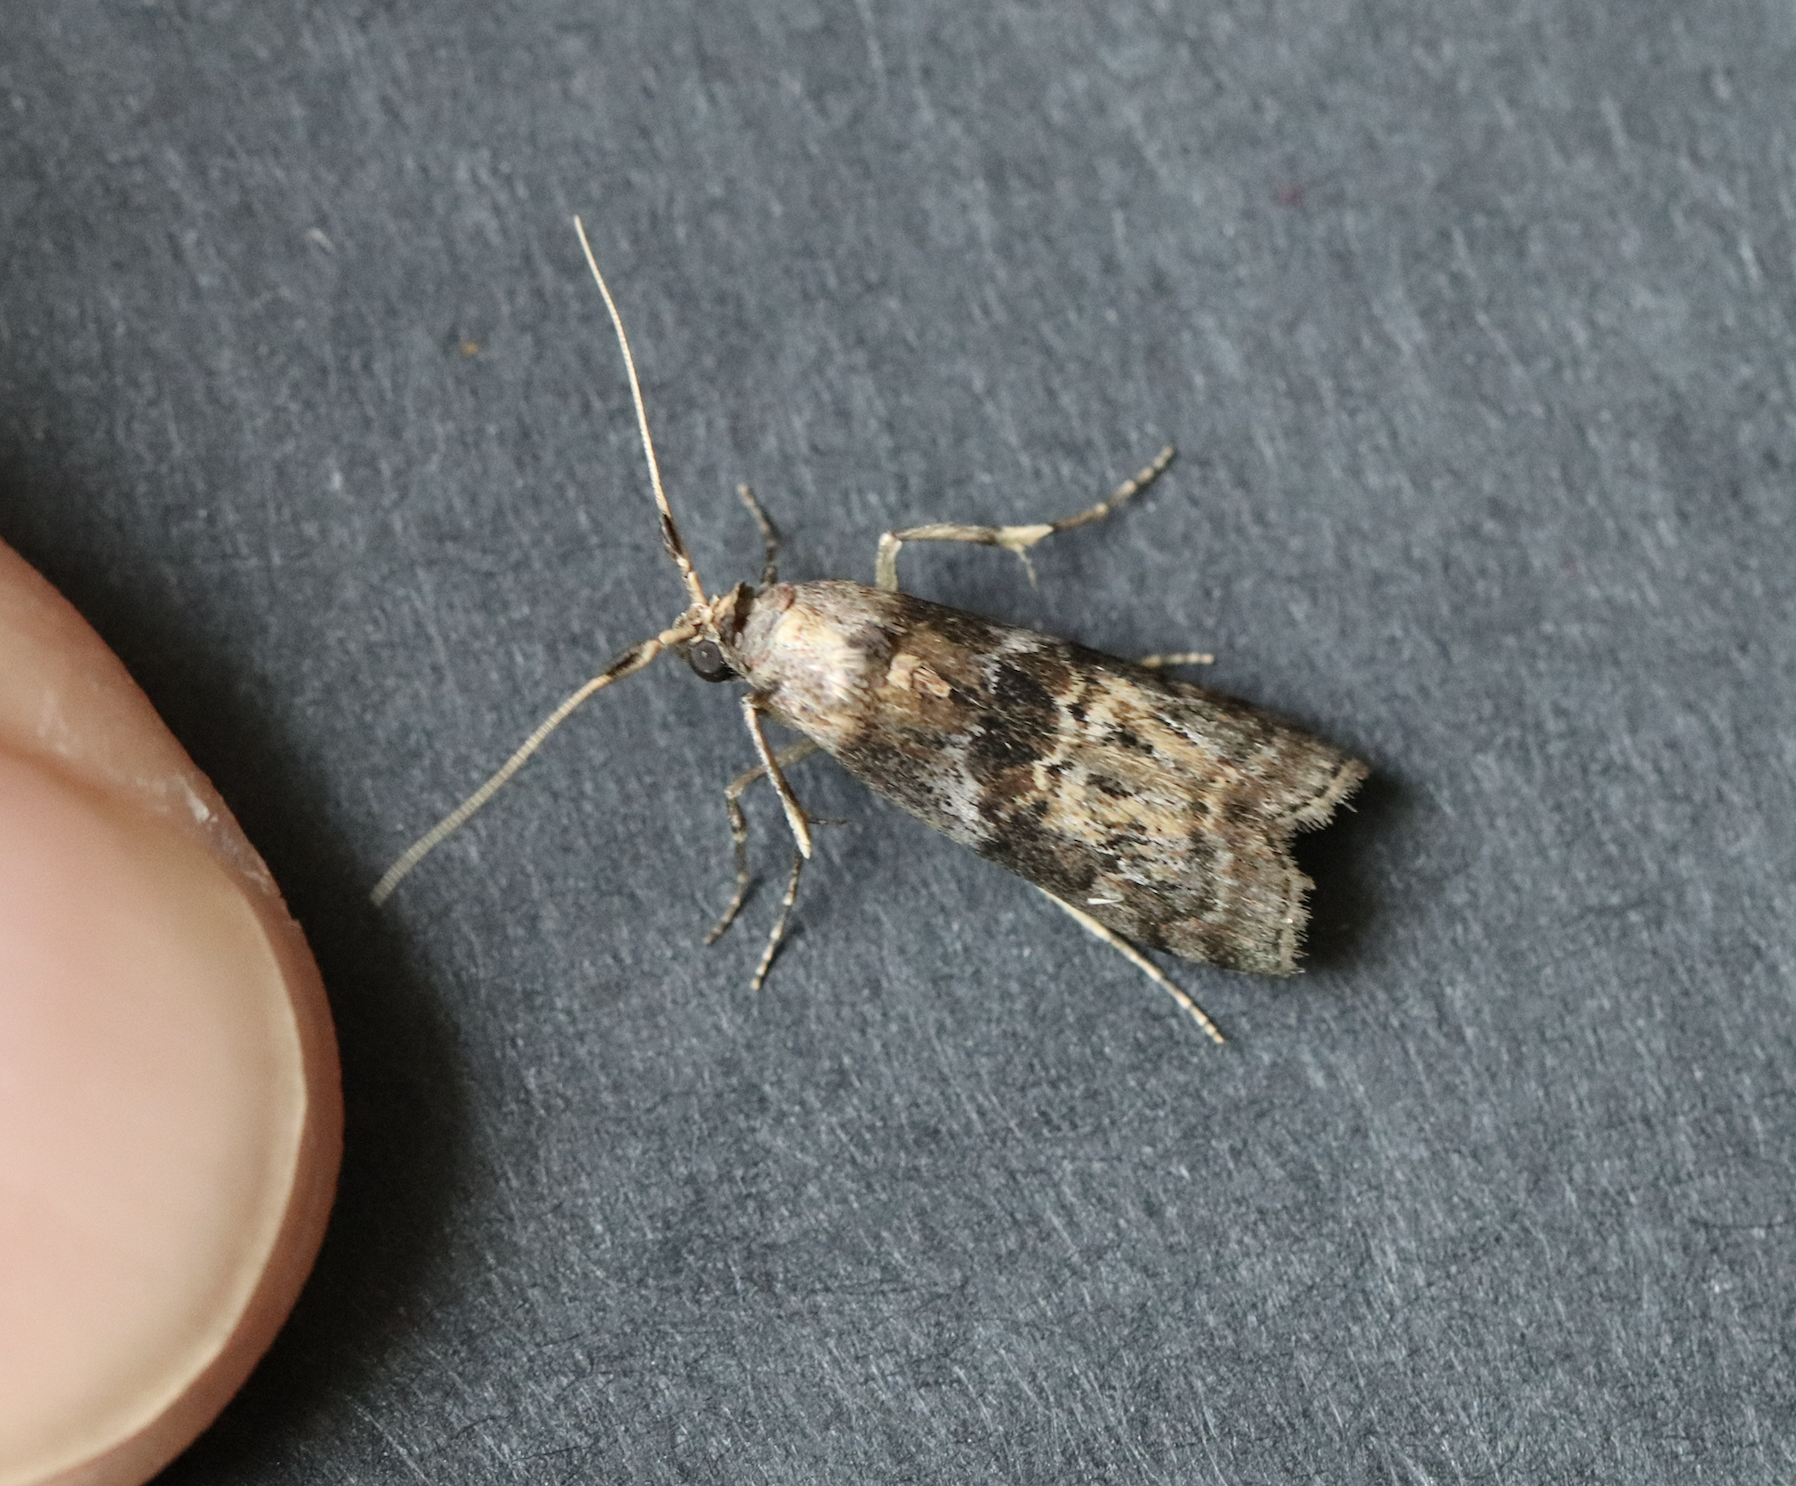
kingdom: Animalia
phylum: Arthropoda
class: Insecta
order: Lepidoptera
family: Pyralidae
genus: Phycita
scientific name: Phycita roborella
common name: Dotted oak knot-horn
